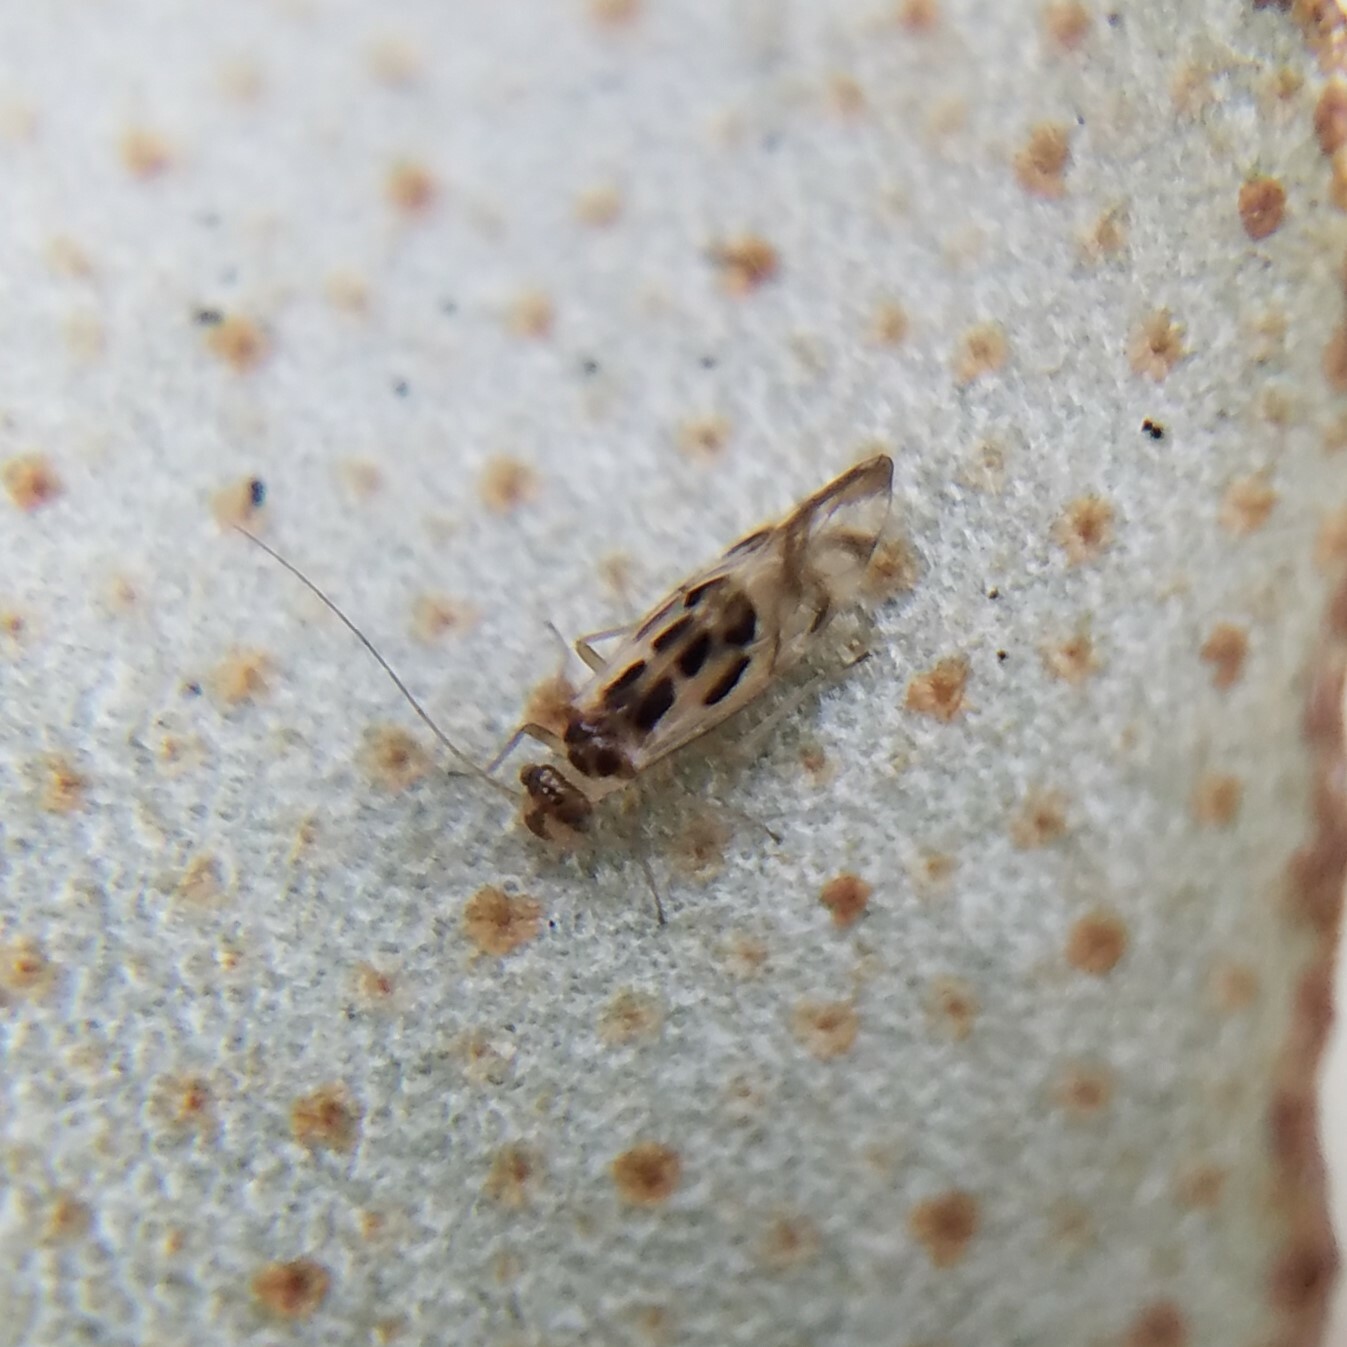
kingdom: Animalia
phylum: Arthropoda
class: Insecta
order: Psocodea
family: Stenopsocidae
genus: Graphopsocus
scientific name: Graphopsocus cruciatus
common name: Lizard bark louse
